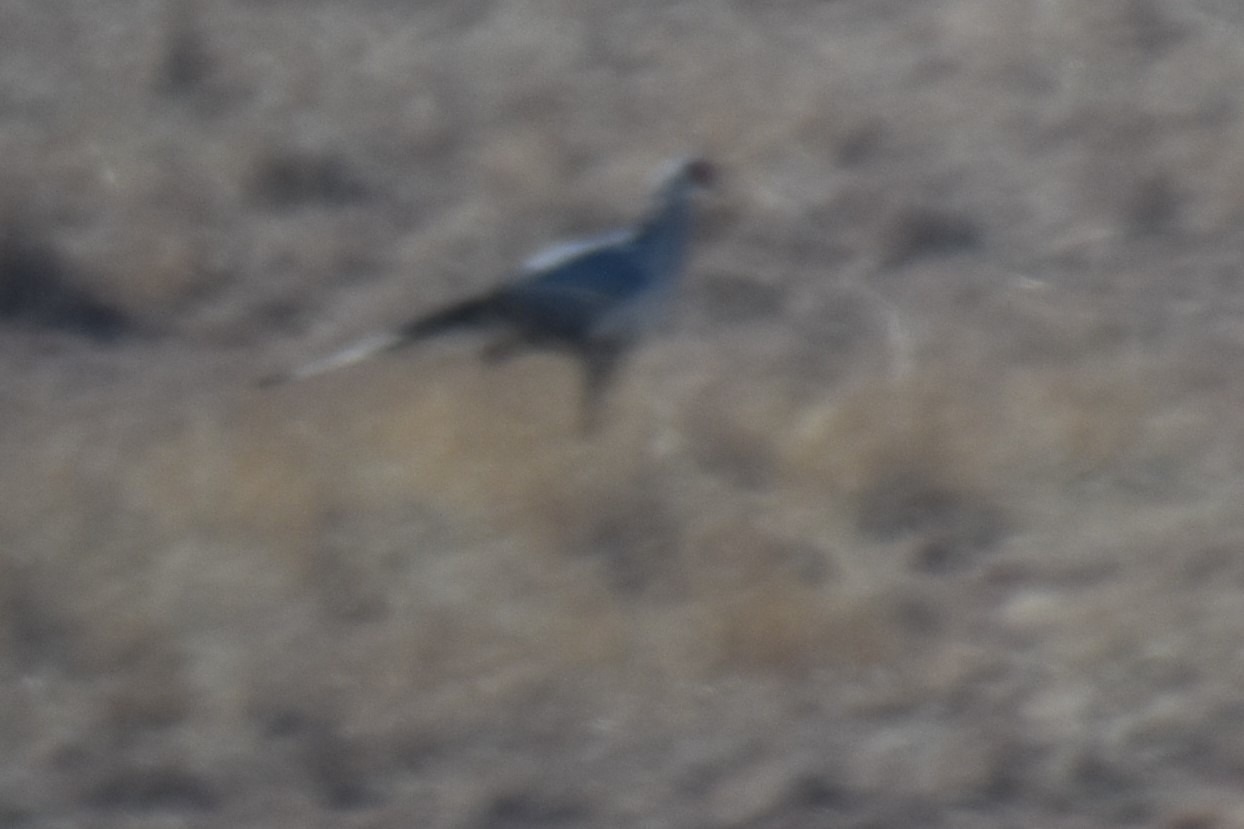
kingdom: Animalia
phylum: Chordata
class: Aves
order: Accipitriformes
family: Sagittariidae
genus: Sagittarius
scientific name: Sagittarius serpentarius
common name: Secretarybird
